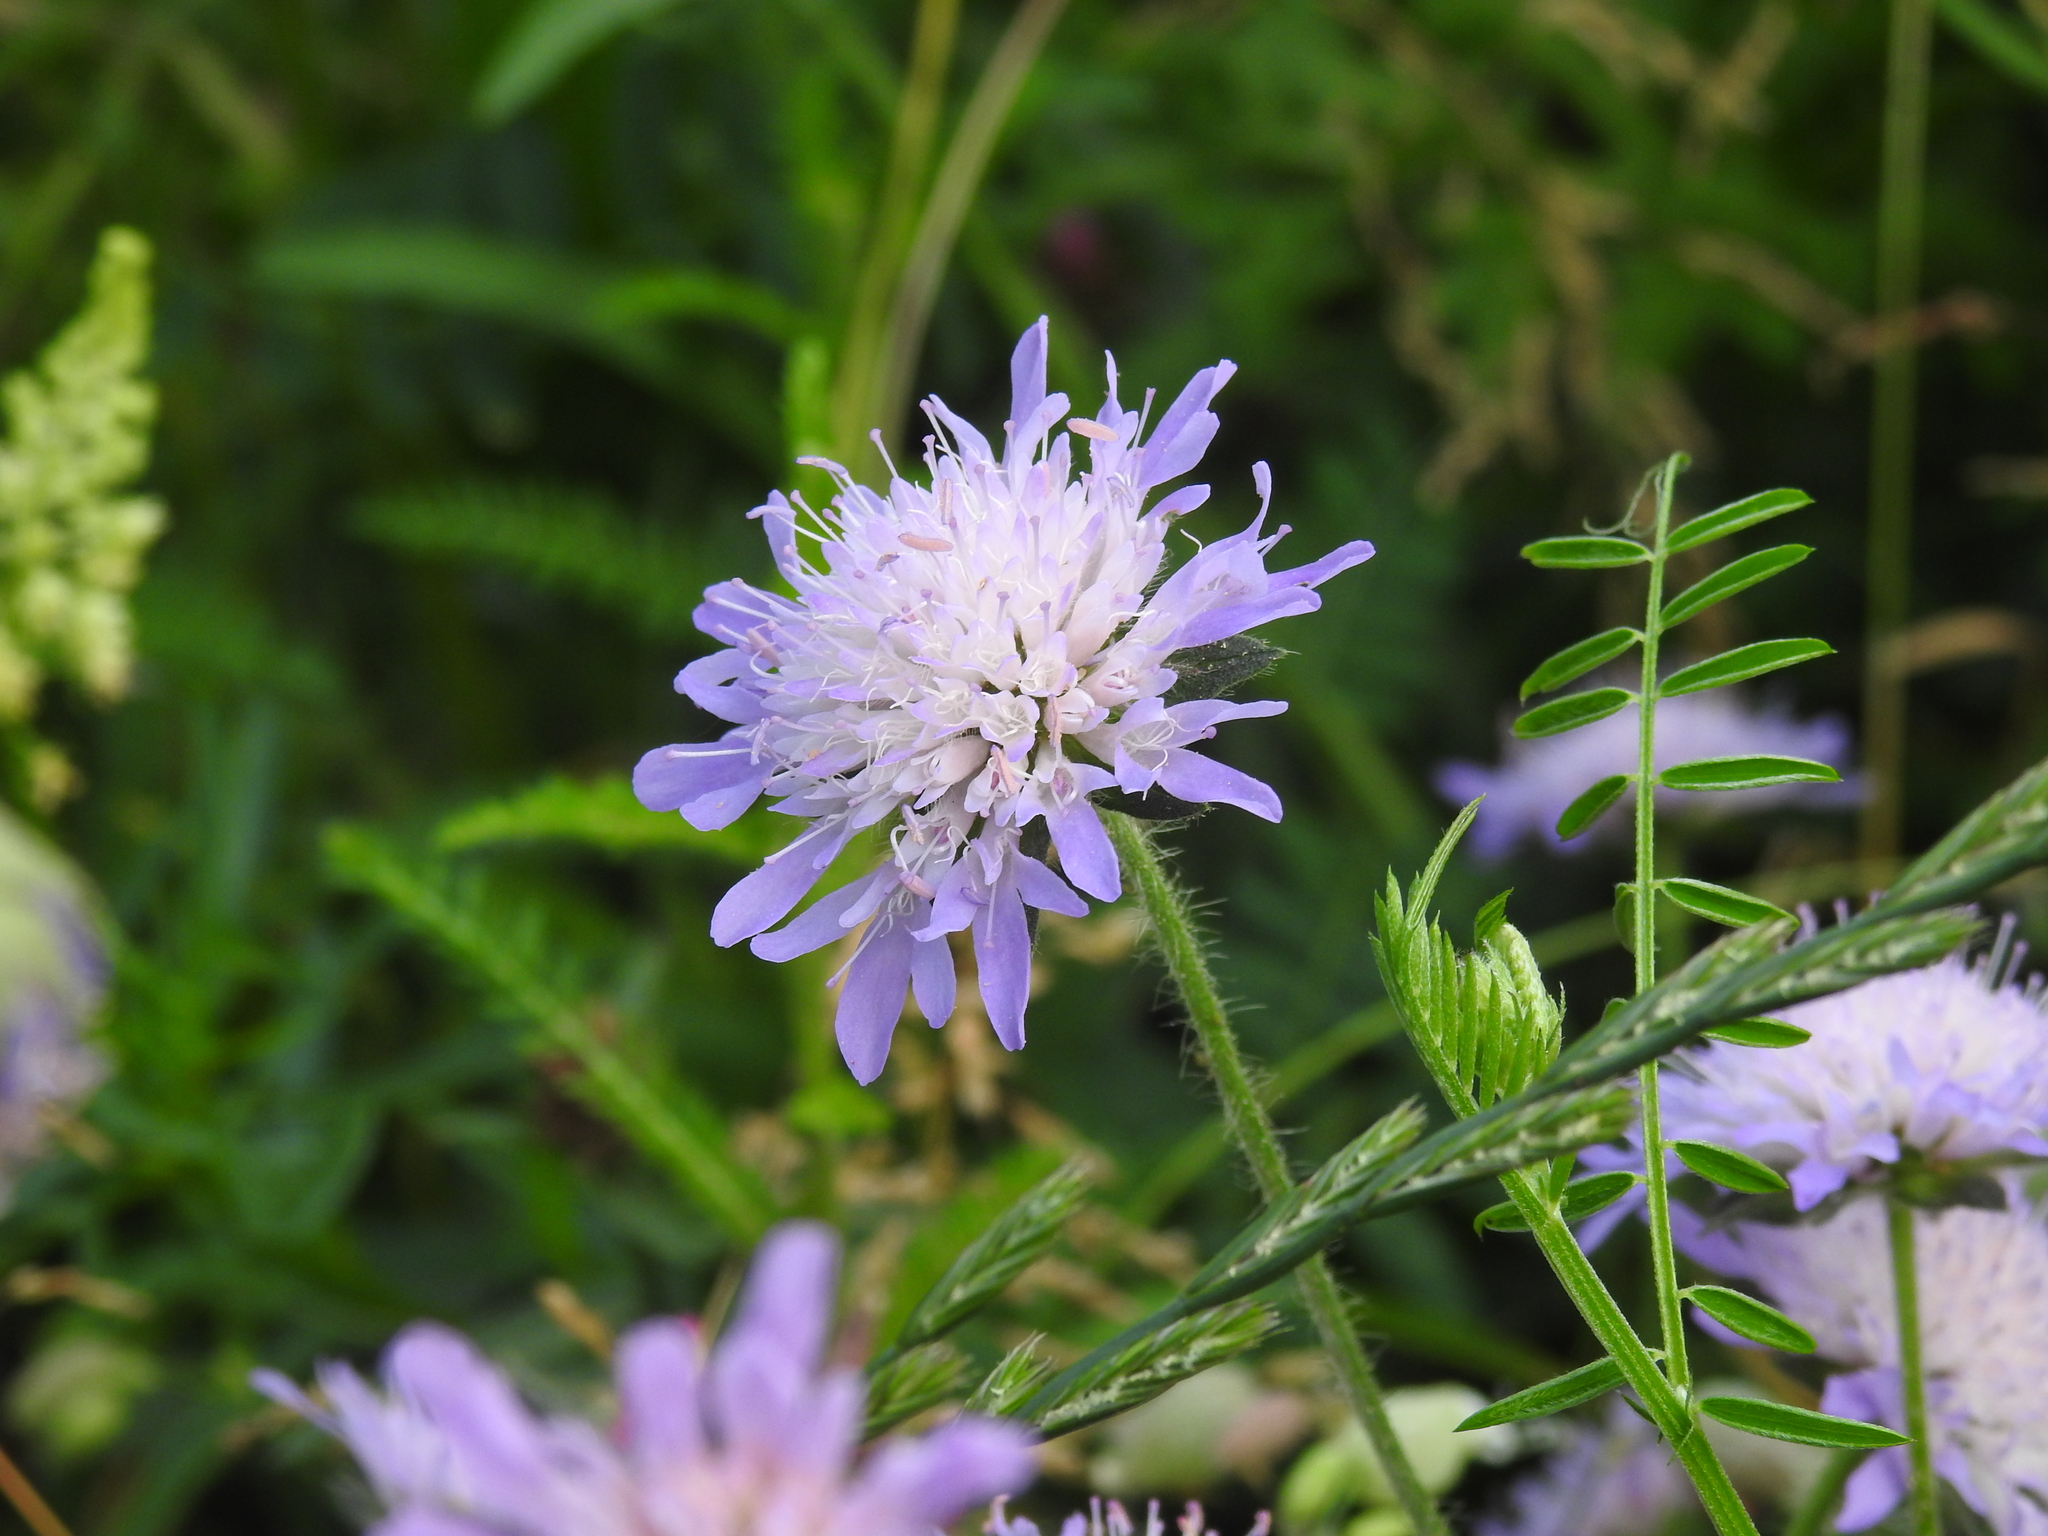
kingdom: Plantae
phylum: Tracheophyta
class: Magnoliopsida
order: Dipsacales
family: Caprifoliaceae
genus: Knautia
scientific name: Knautia arvensis
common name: Field scabiosa
